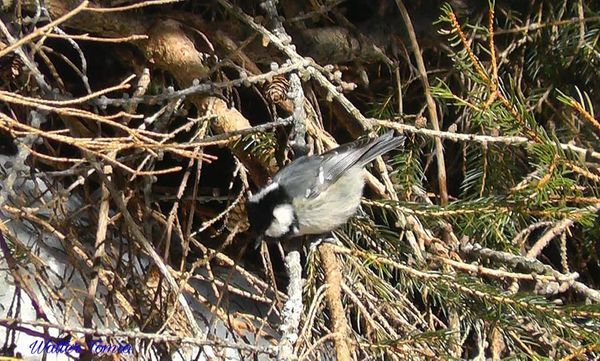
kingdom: Animalia
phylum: Chordata
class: Aves
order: Passeriformes
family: Paridae
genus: Periparus
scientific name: Periparus ater
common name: Coal tit
